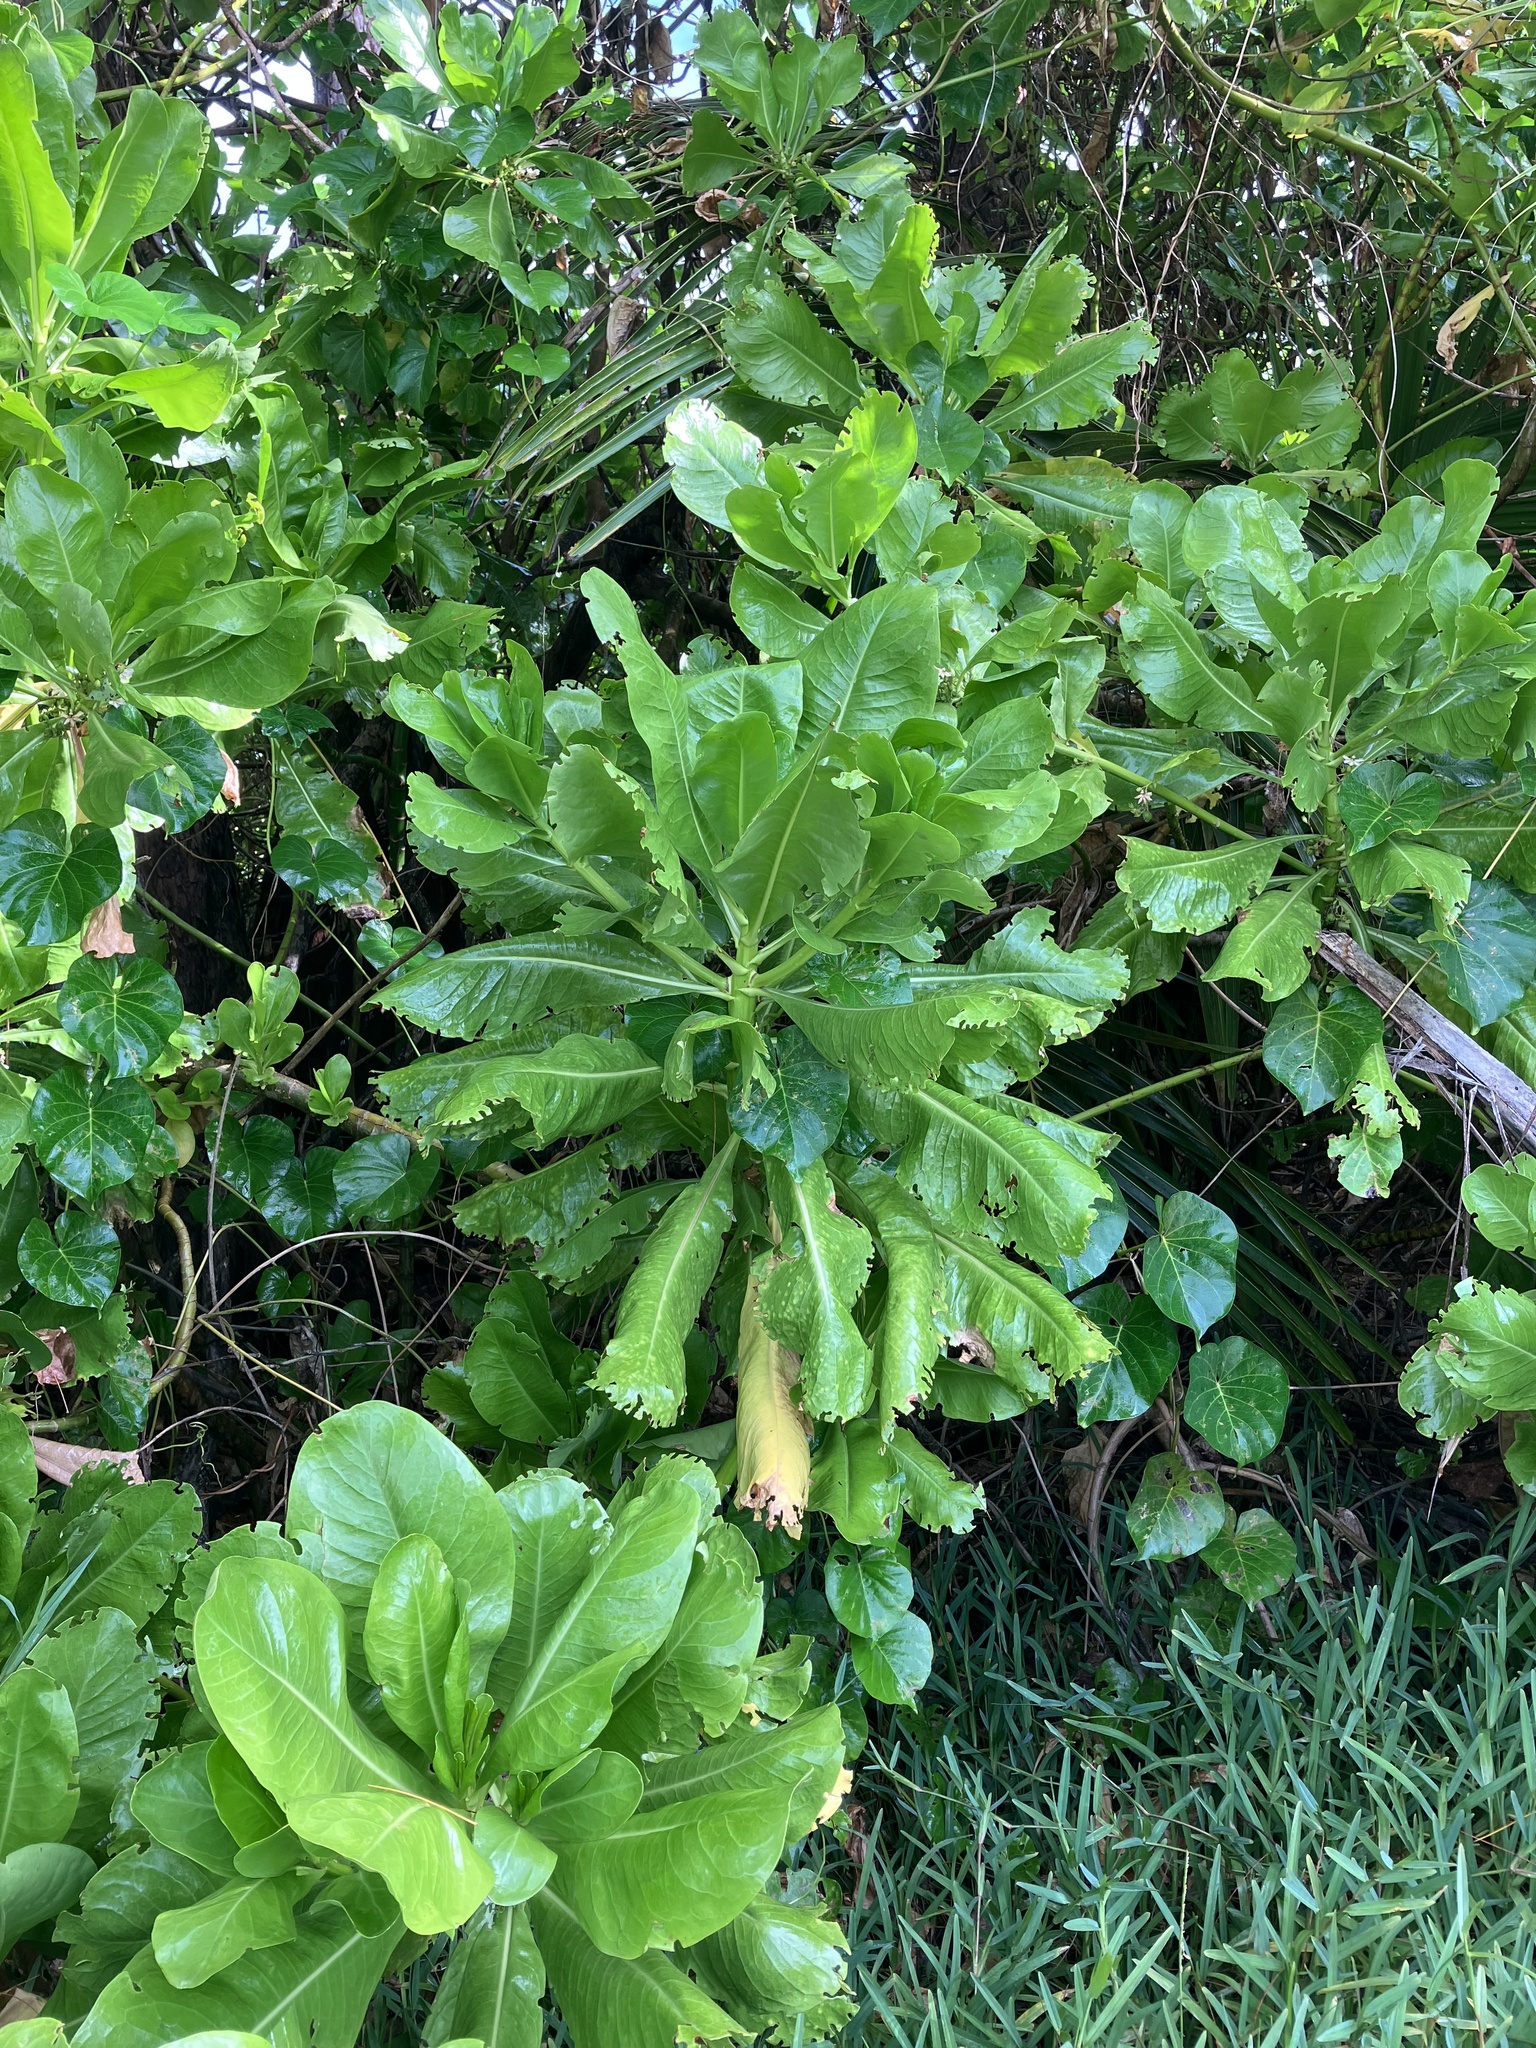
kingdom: Plantae
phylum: Tracheophyta
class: Magnoliopsida
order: Asterales
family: Goodeniaceae
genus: Scaevola
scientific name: Scaevola taccada
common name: Sea lettucetree
